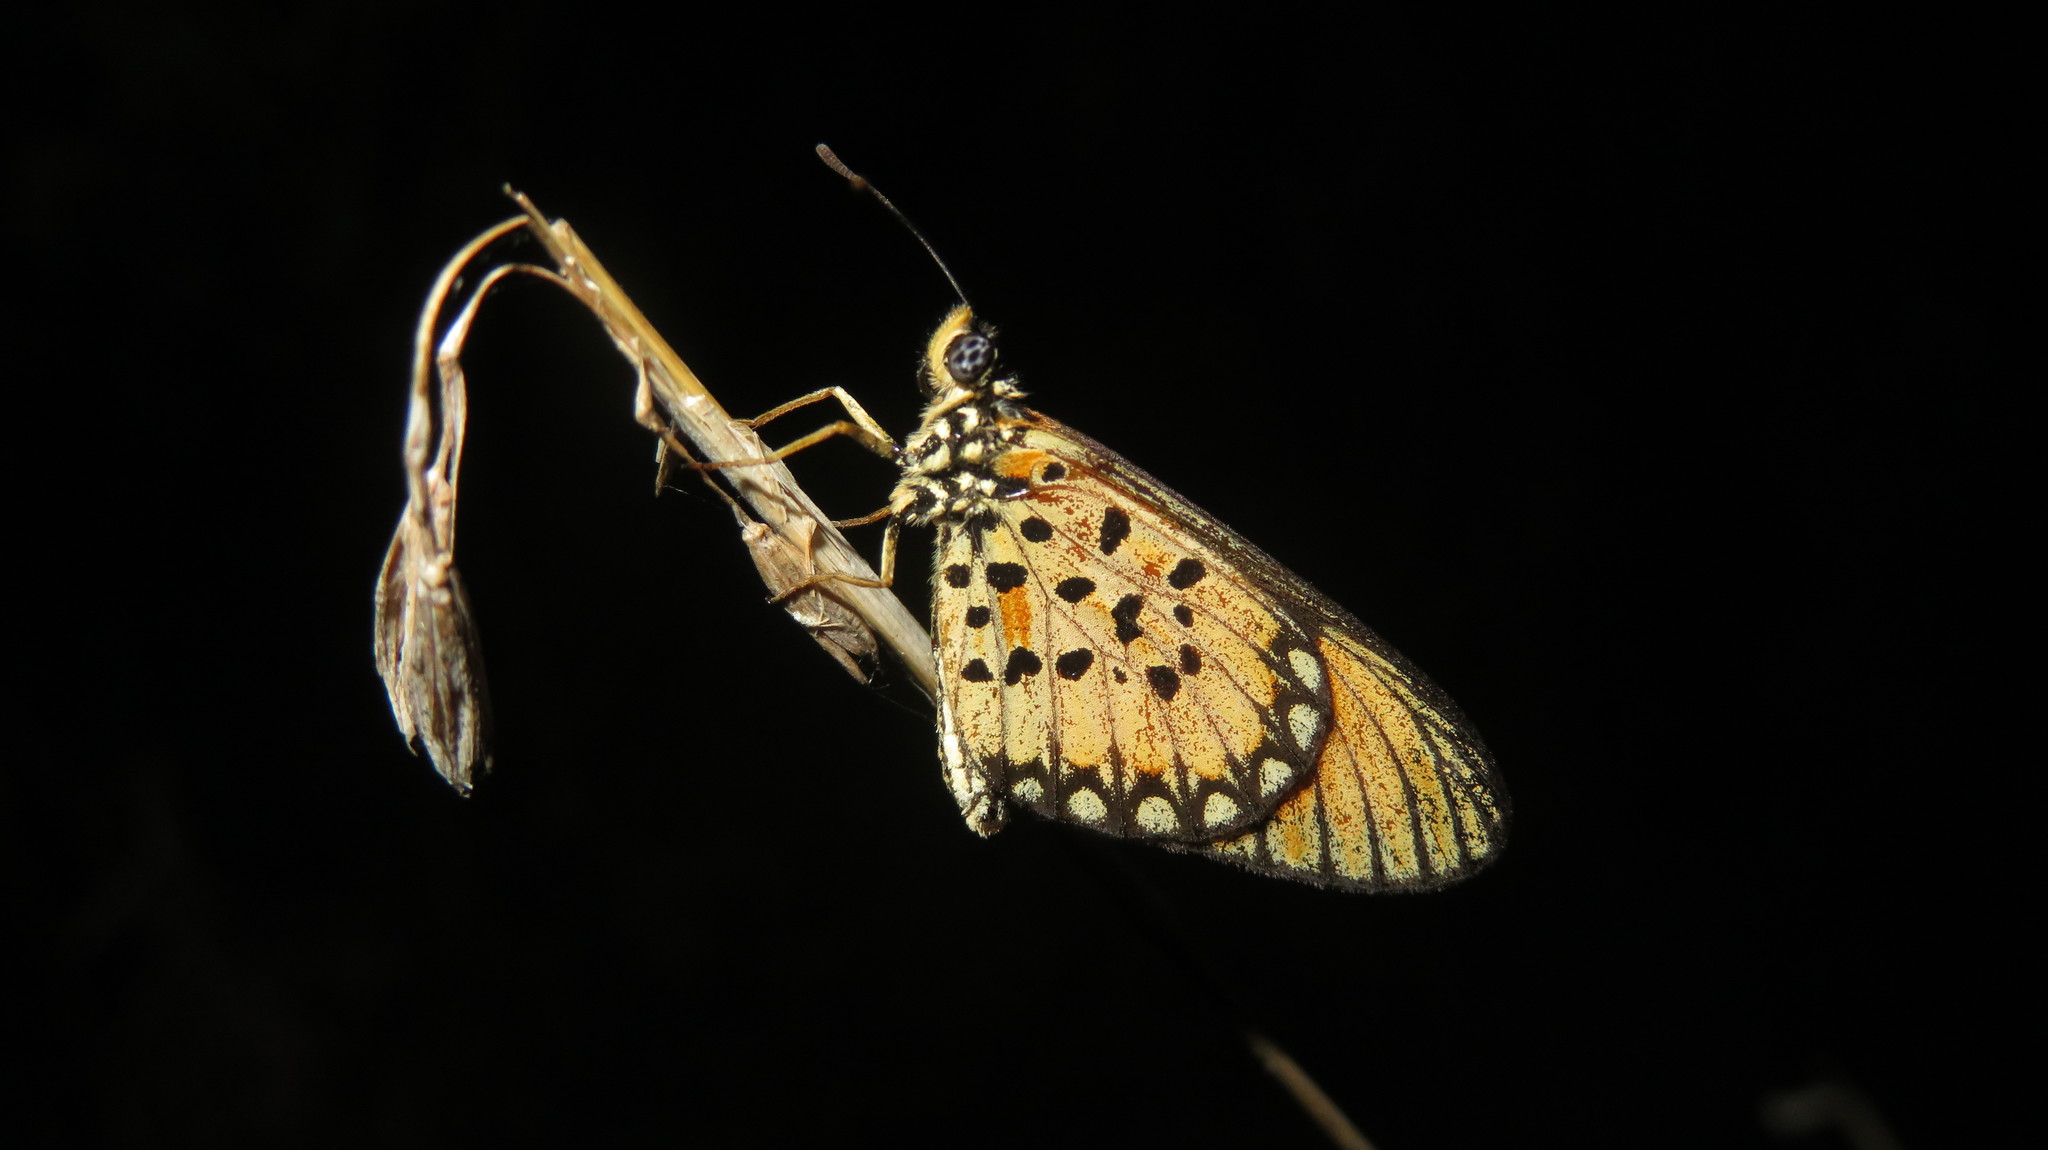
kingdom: Animalia
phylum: Arthropoda
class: Insecta
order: Lepidoptera
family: Nymphalidae
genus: Acraea
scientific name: Acraea Telchinia serena
